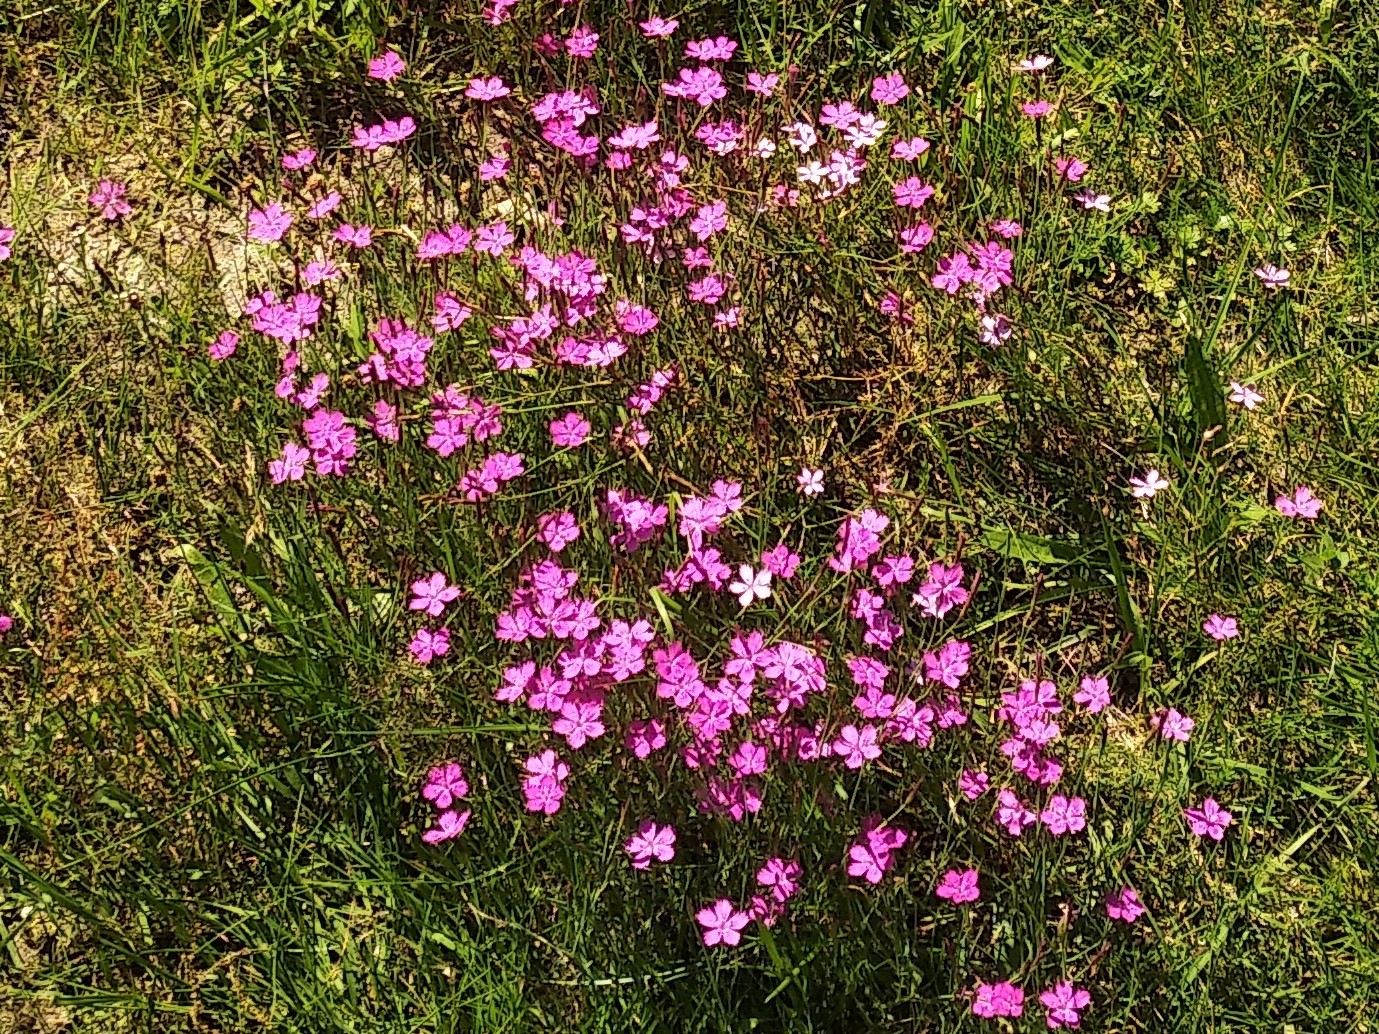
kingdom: Plantae
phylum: Tracheophyta
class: Magnoliopsida
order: Caryophyllales
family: Caryophyllaceae
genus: Dianthus
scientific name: Dianthus deltoides
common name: Maiden pink
